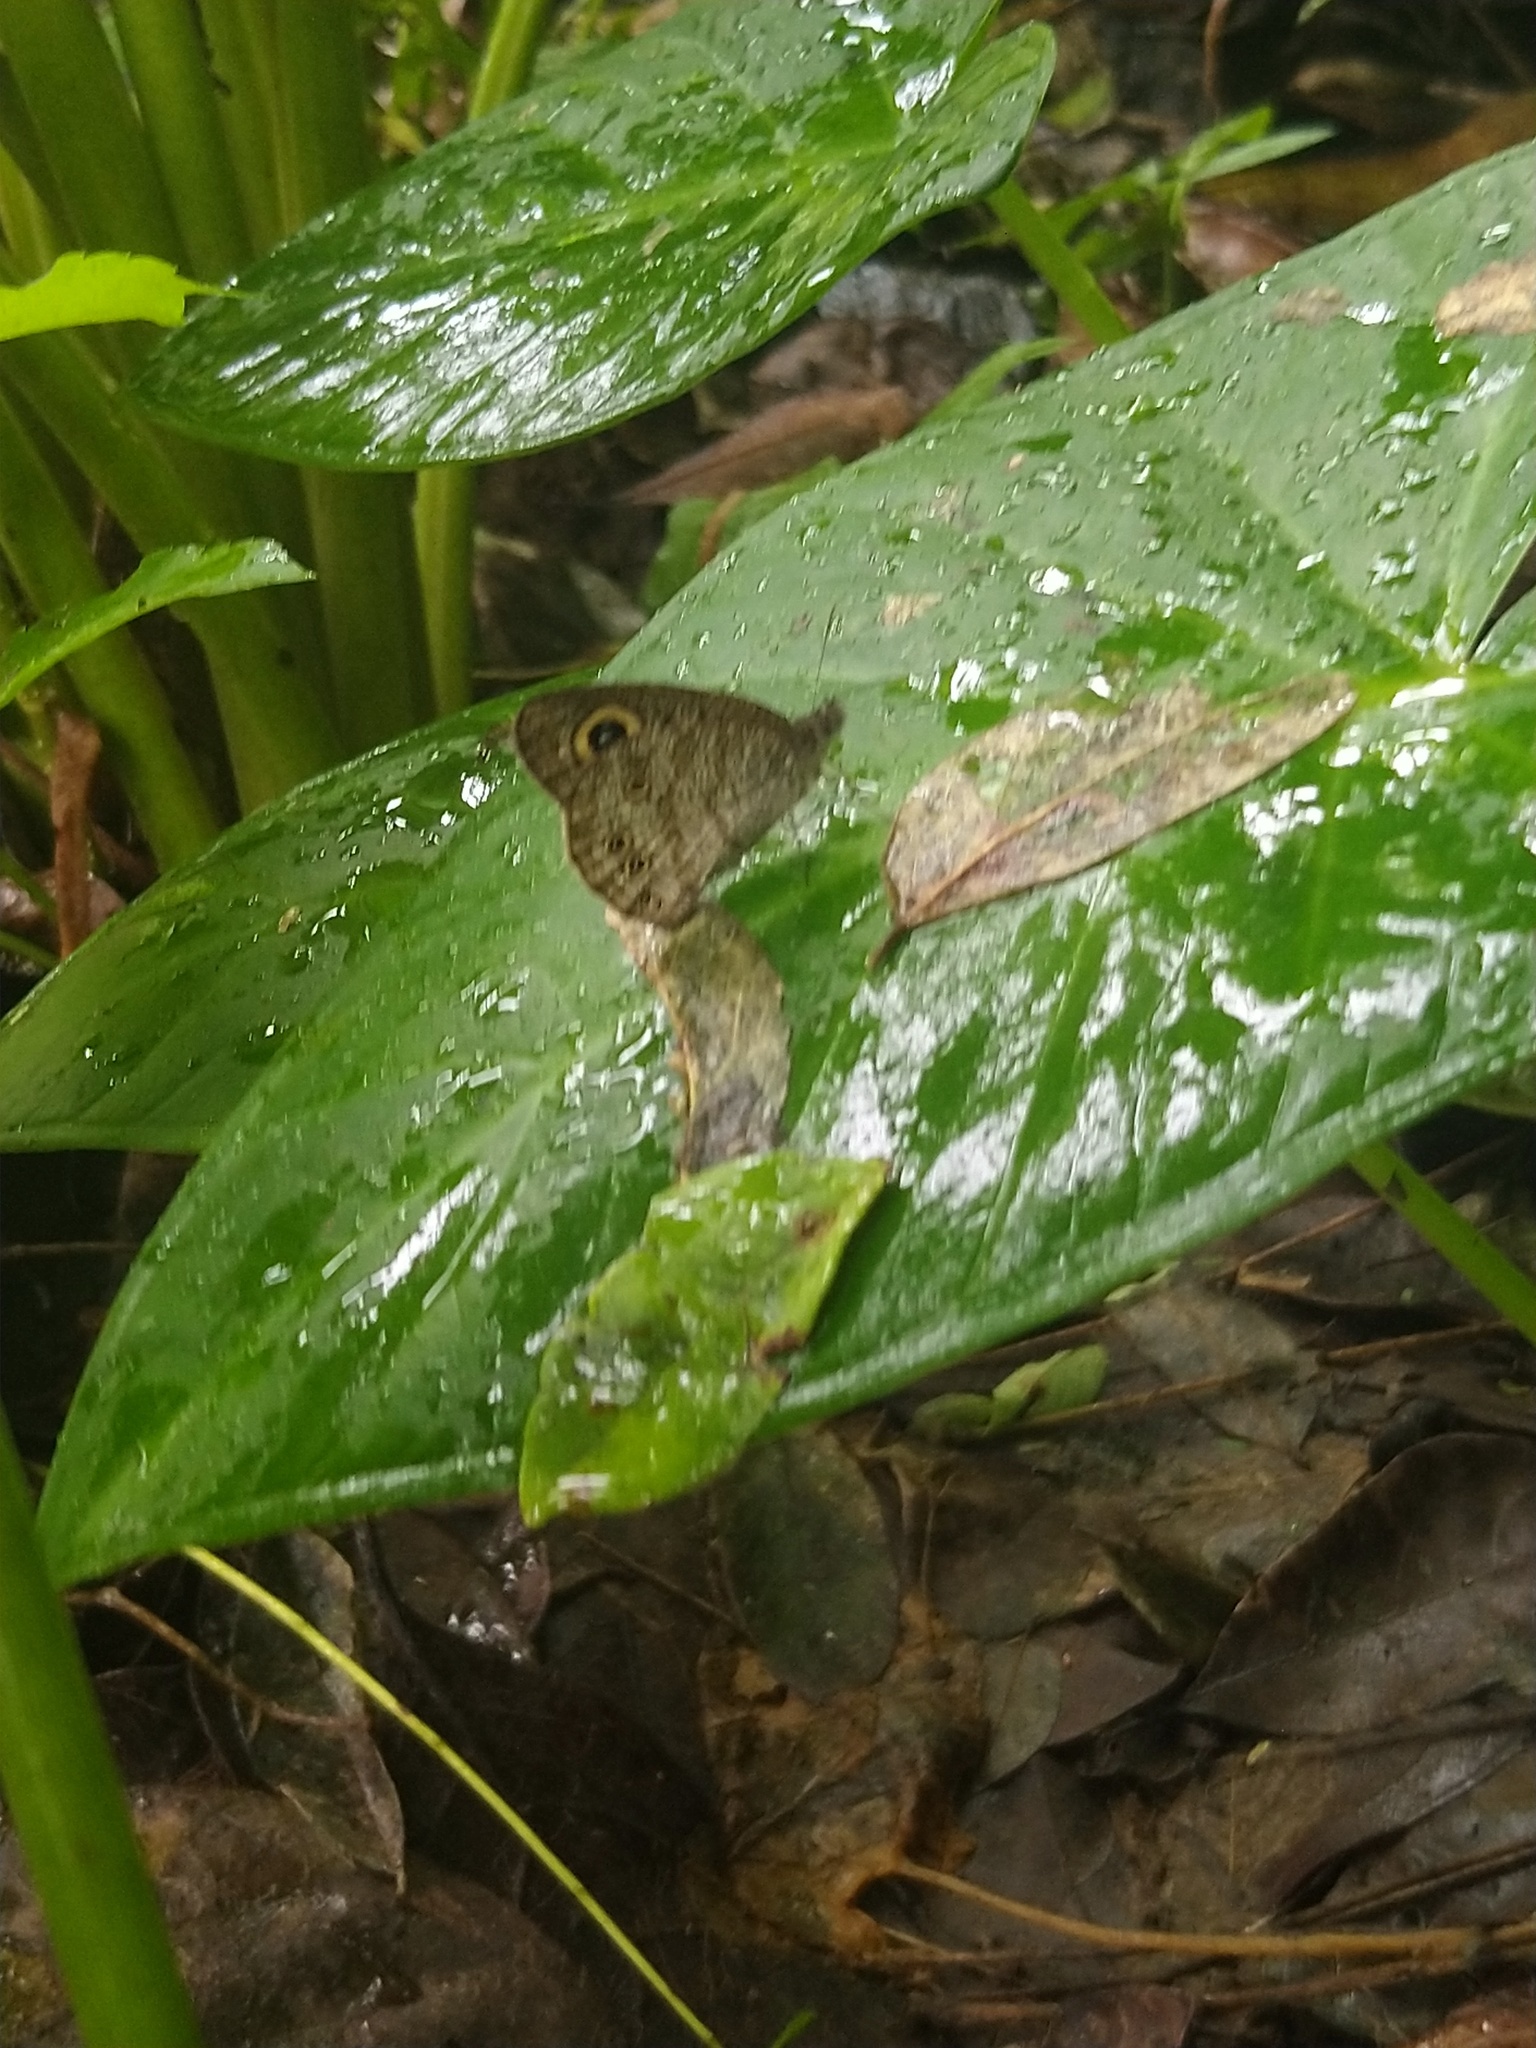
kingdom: Animalia
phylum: Arthropoda
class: Insecta
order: Lepidoptera
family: Nymphalidae
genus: Ypthima
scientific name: Ypthima huebneri
